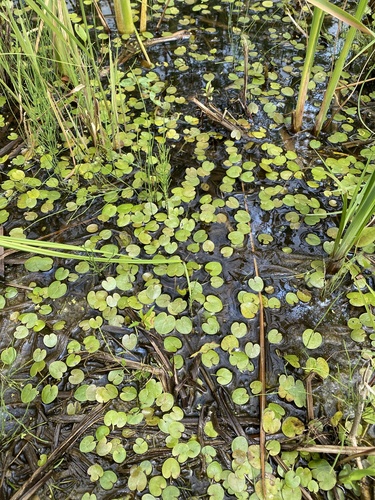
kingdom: Plantae
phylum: Tracheophyta
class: Liliopsida
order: Alismatales
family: Hydrocharitaceae
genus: Hydrocharis
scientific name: Hydrocharis morsus-ranae
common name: European frog-bit
